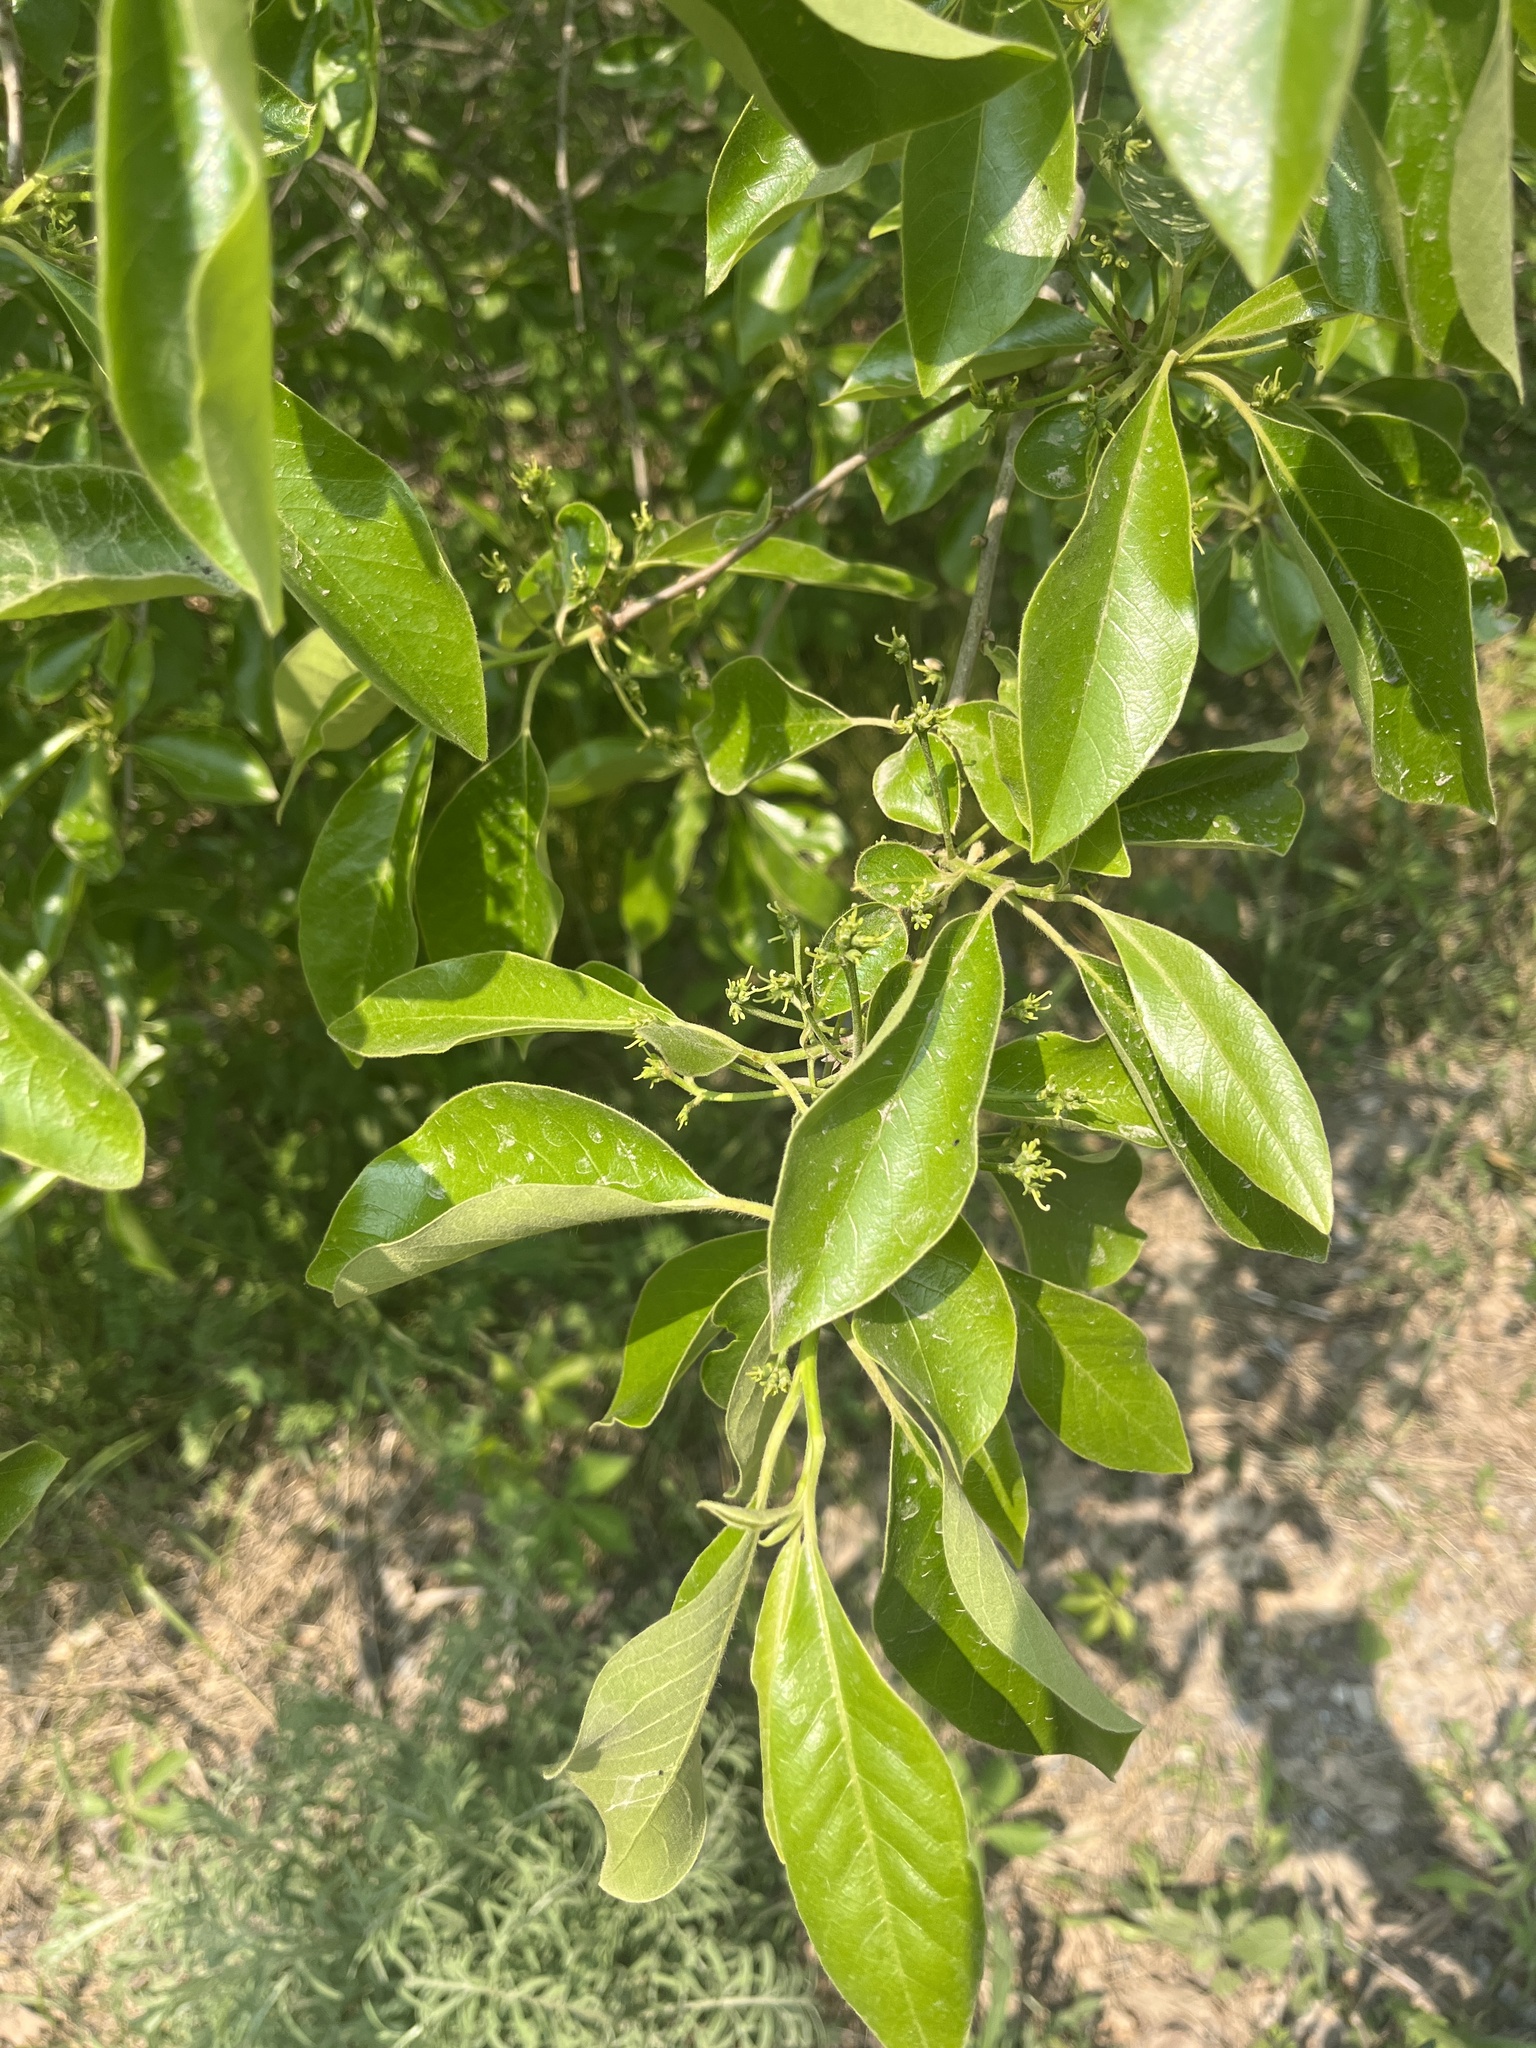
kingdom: Plantae
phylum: Tracheophyta
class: Magnoliopsida
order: Cornales
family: Nyssaceae
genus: Nyssa
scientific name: Nyssa sylvatica
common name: Black tupelo
